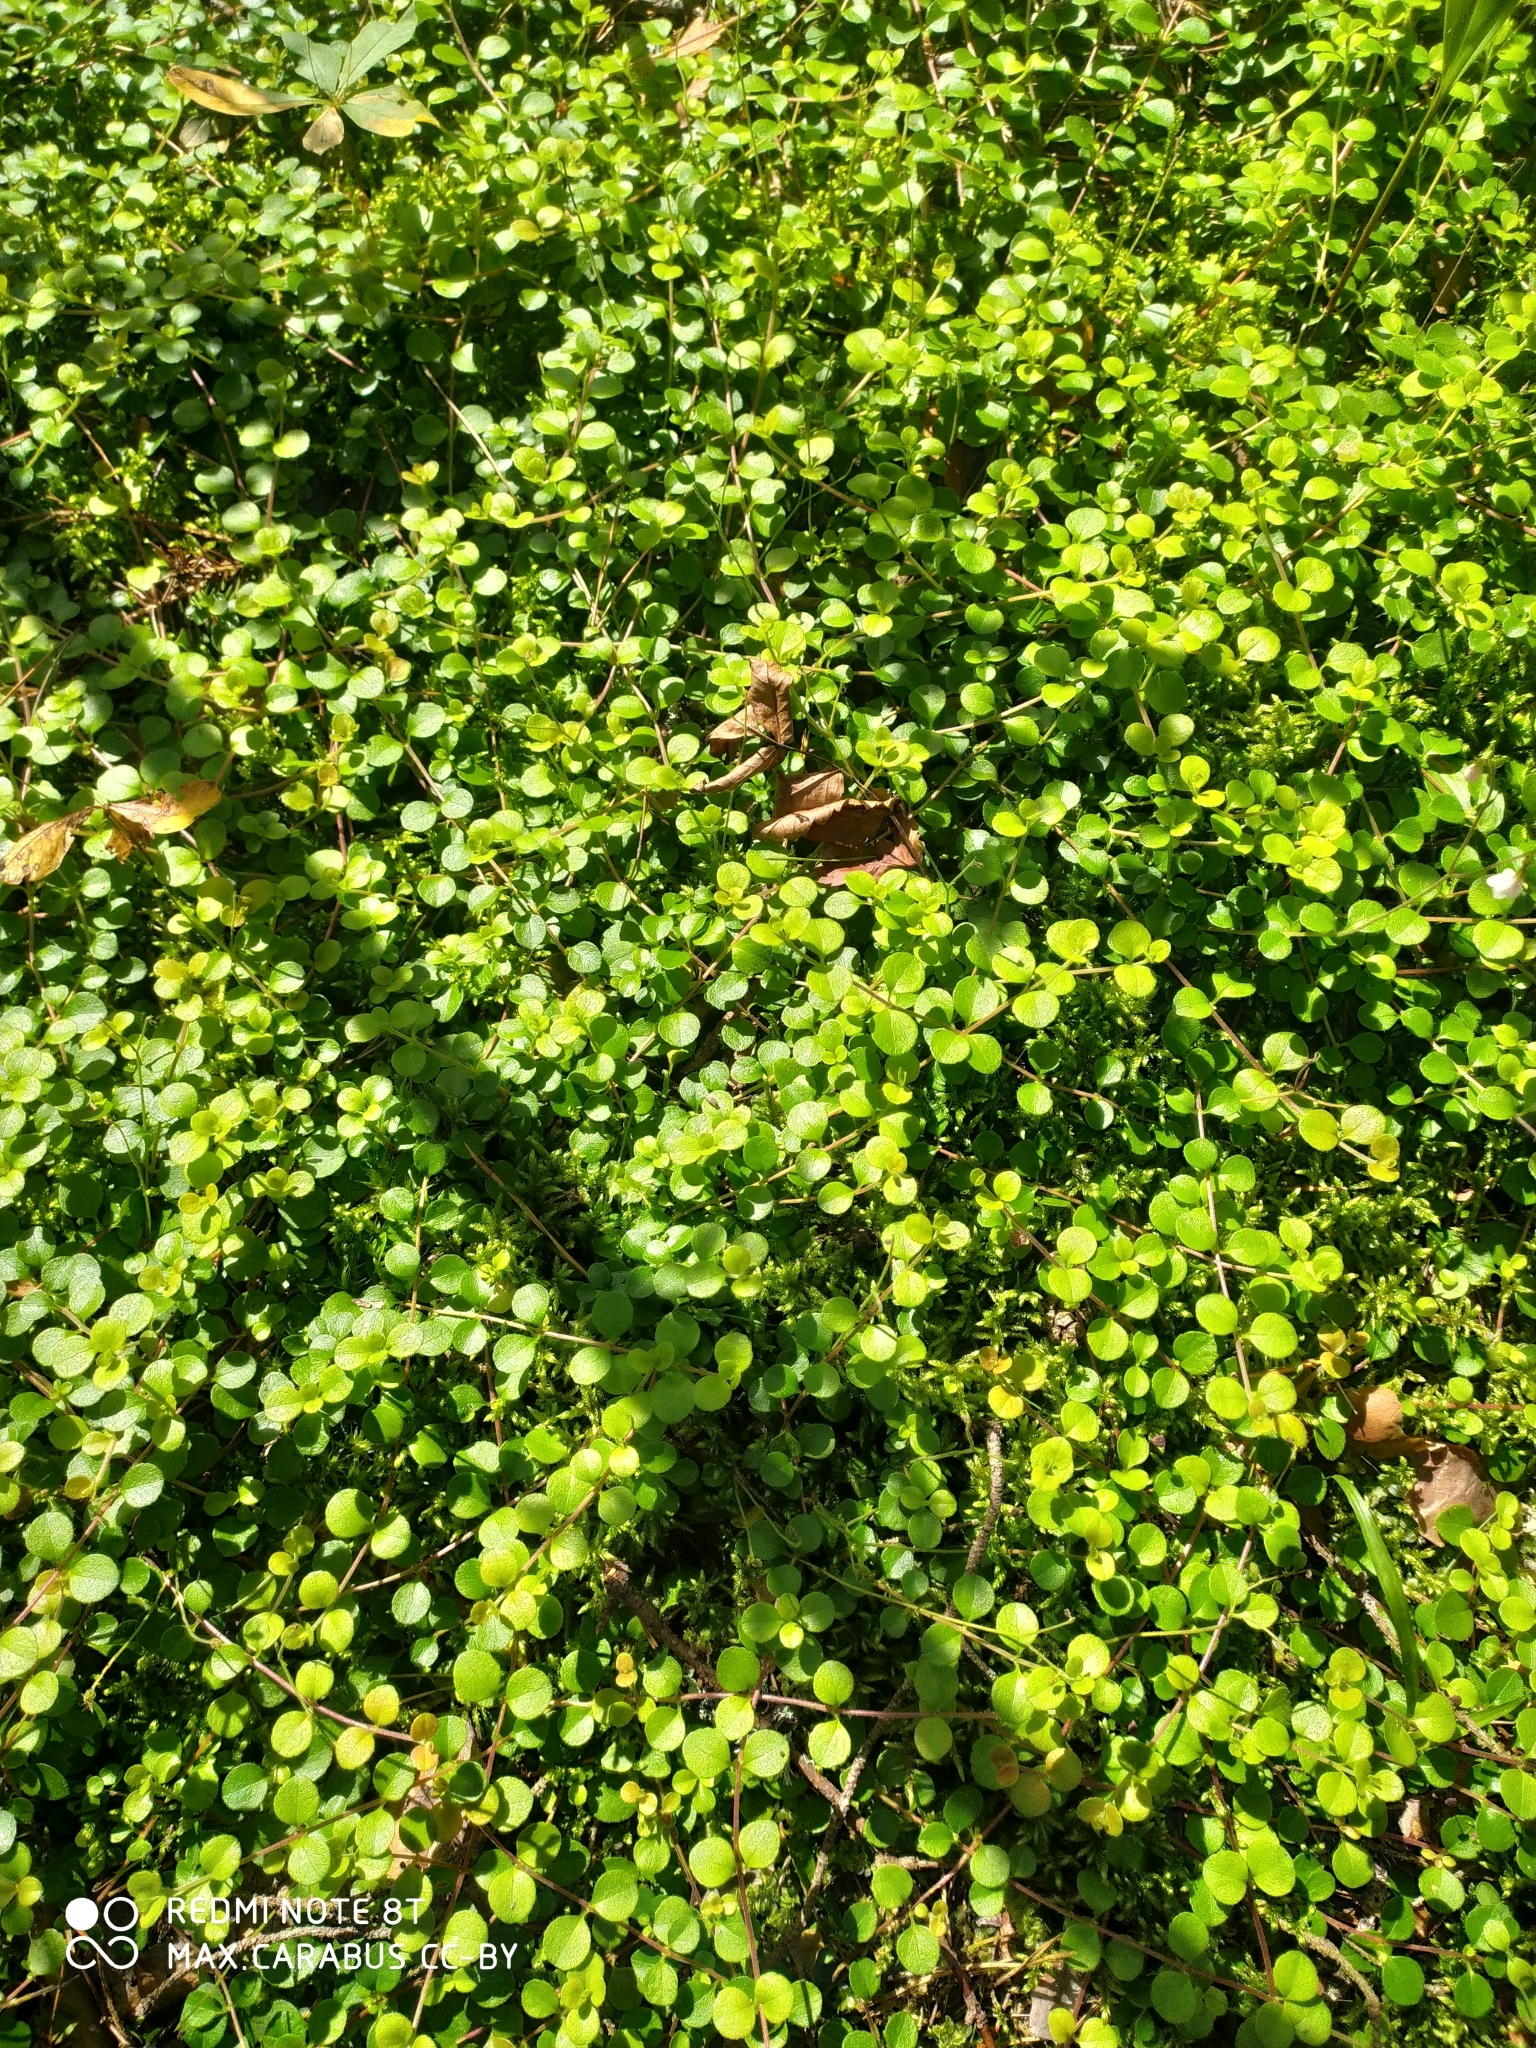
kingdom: Plantae
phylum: Tracheophyta
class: Magnoliopsida
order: Dipsacales
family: Caprifoliaceae
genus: Linnaea
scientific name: Linnaea borealis
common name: Twinflower
